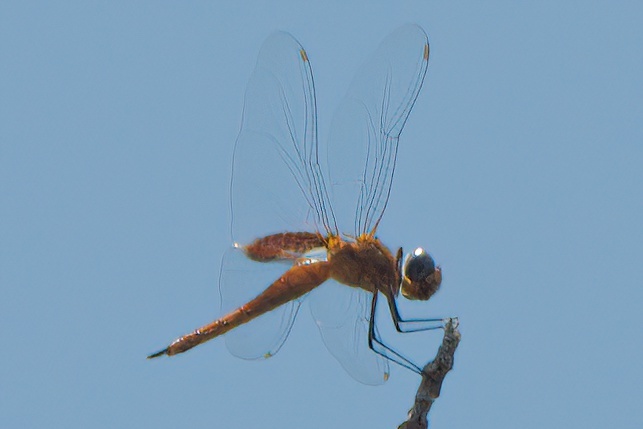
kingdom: Animalia
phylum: Arthropoda
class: Insecta
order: Odonata
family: Libellulidae
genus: Tramea
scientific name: Tramea abdominalis
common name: Vermilion saddlebags
